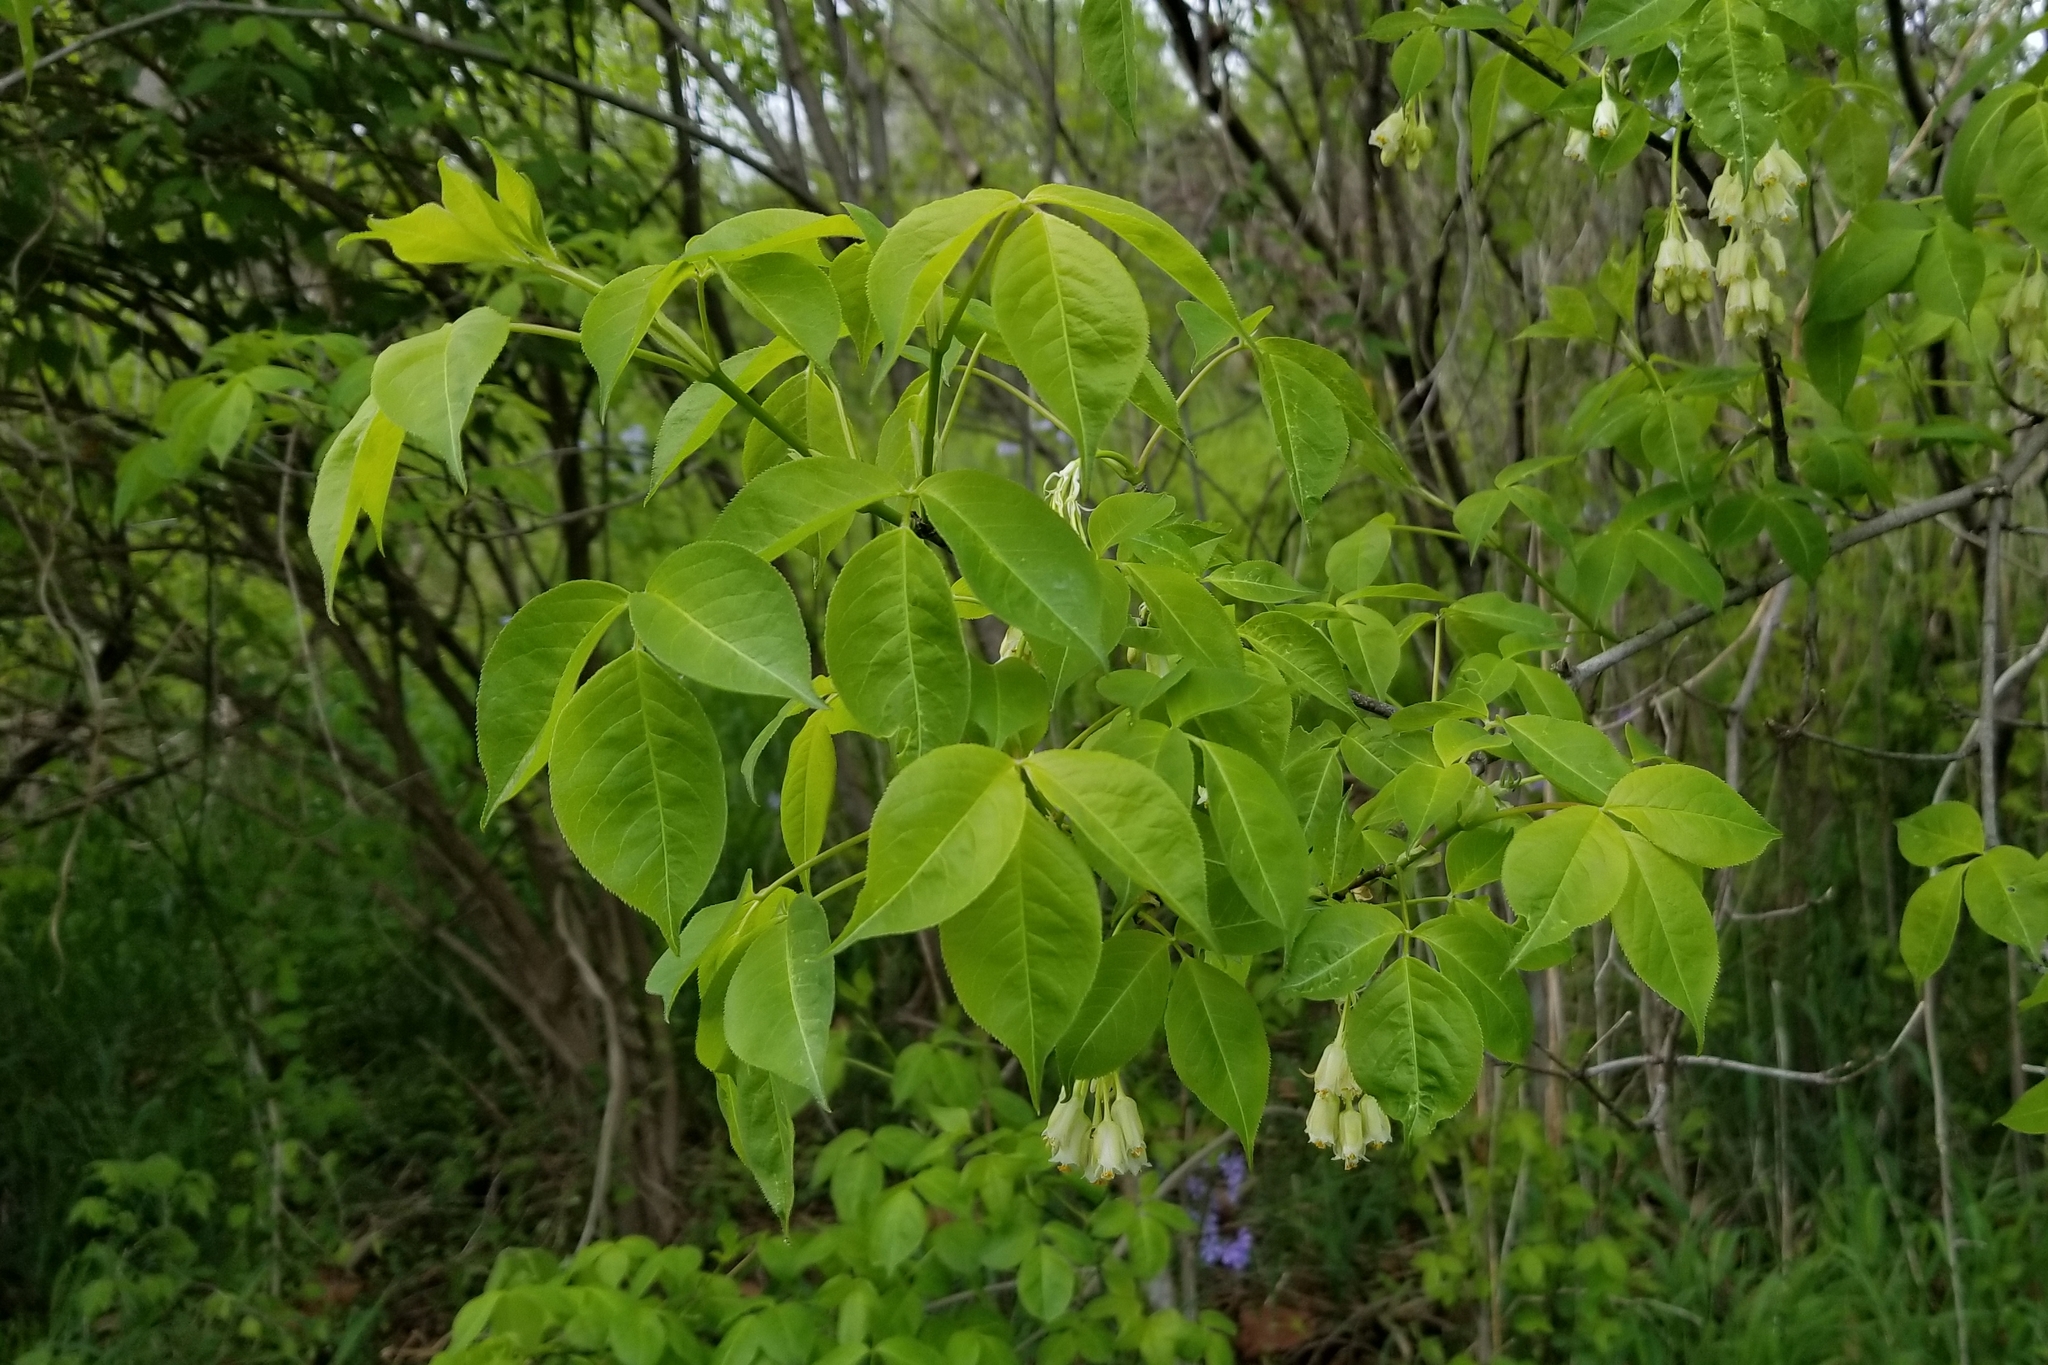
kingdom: Plantae
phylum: Tracheophyta
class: Magnoliopsida
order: Crossosomatales
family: Staphyleaceae
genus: Staphylea
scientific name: Staphylea trifolia
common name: American bladdernut
